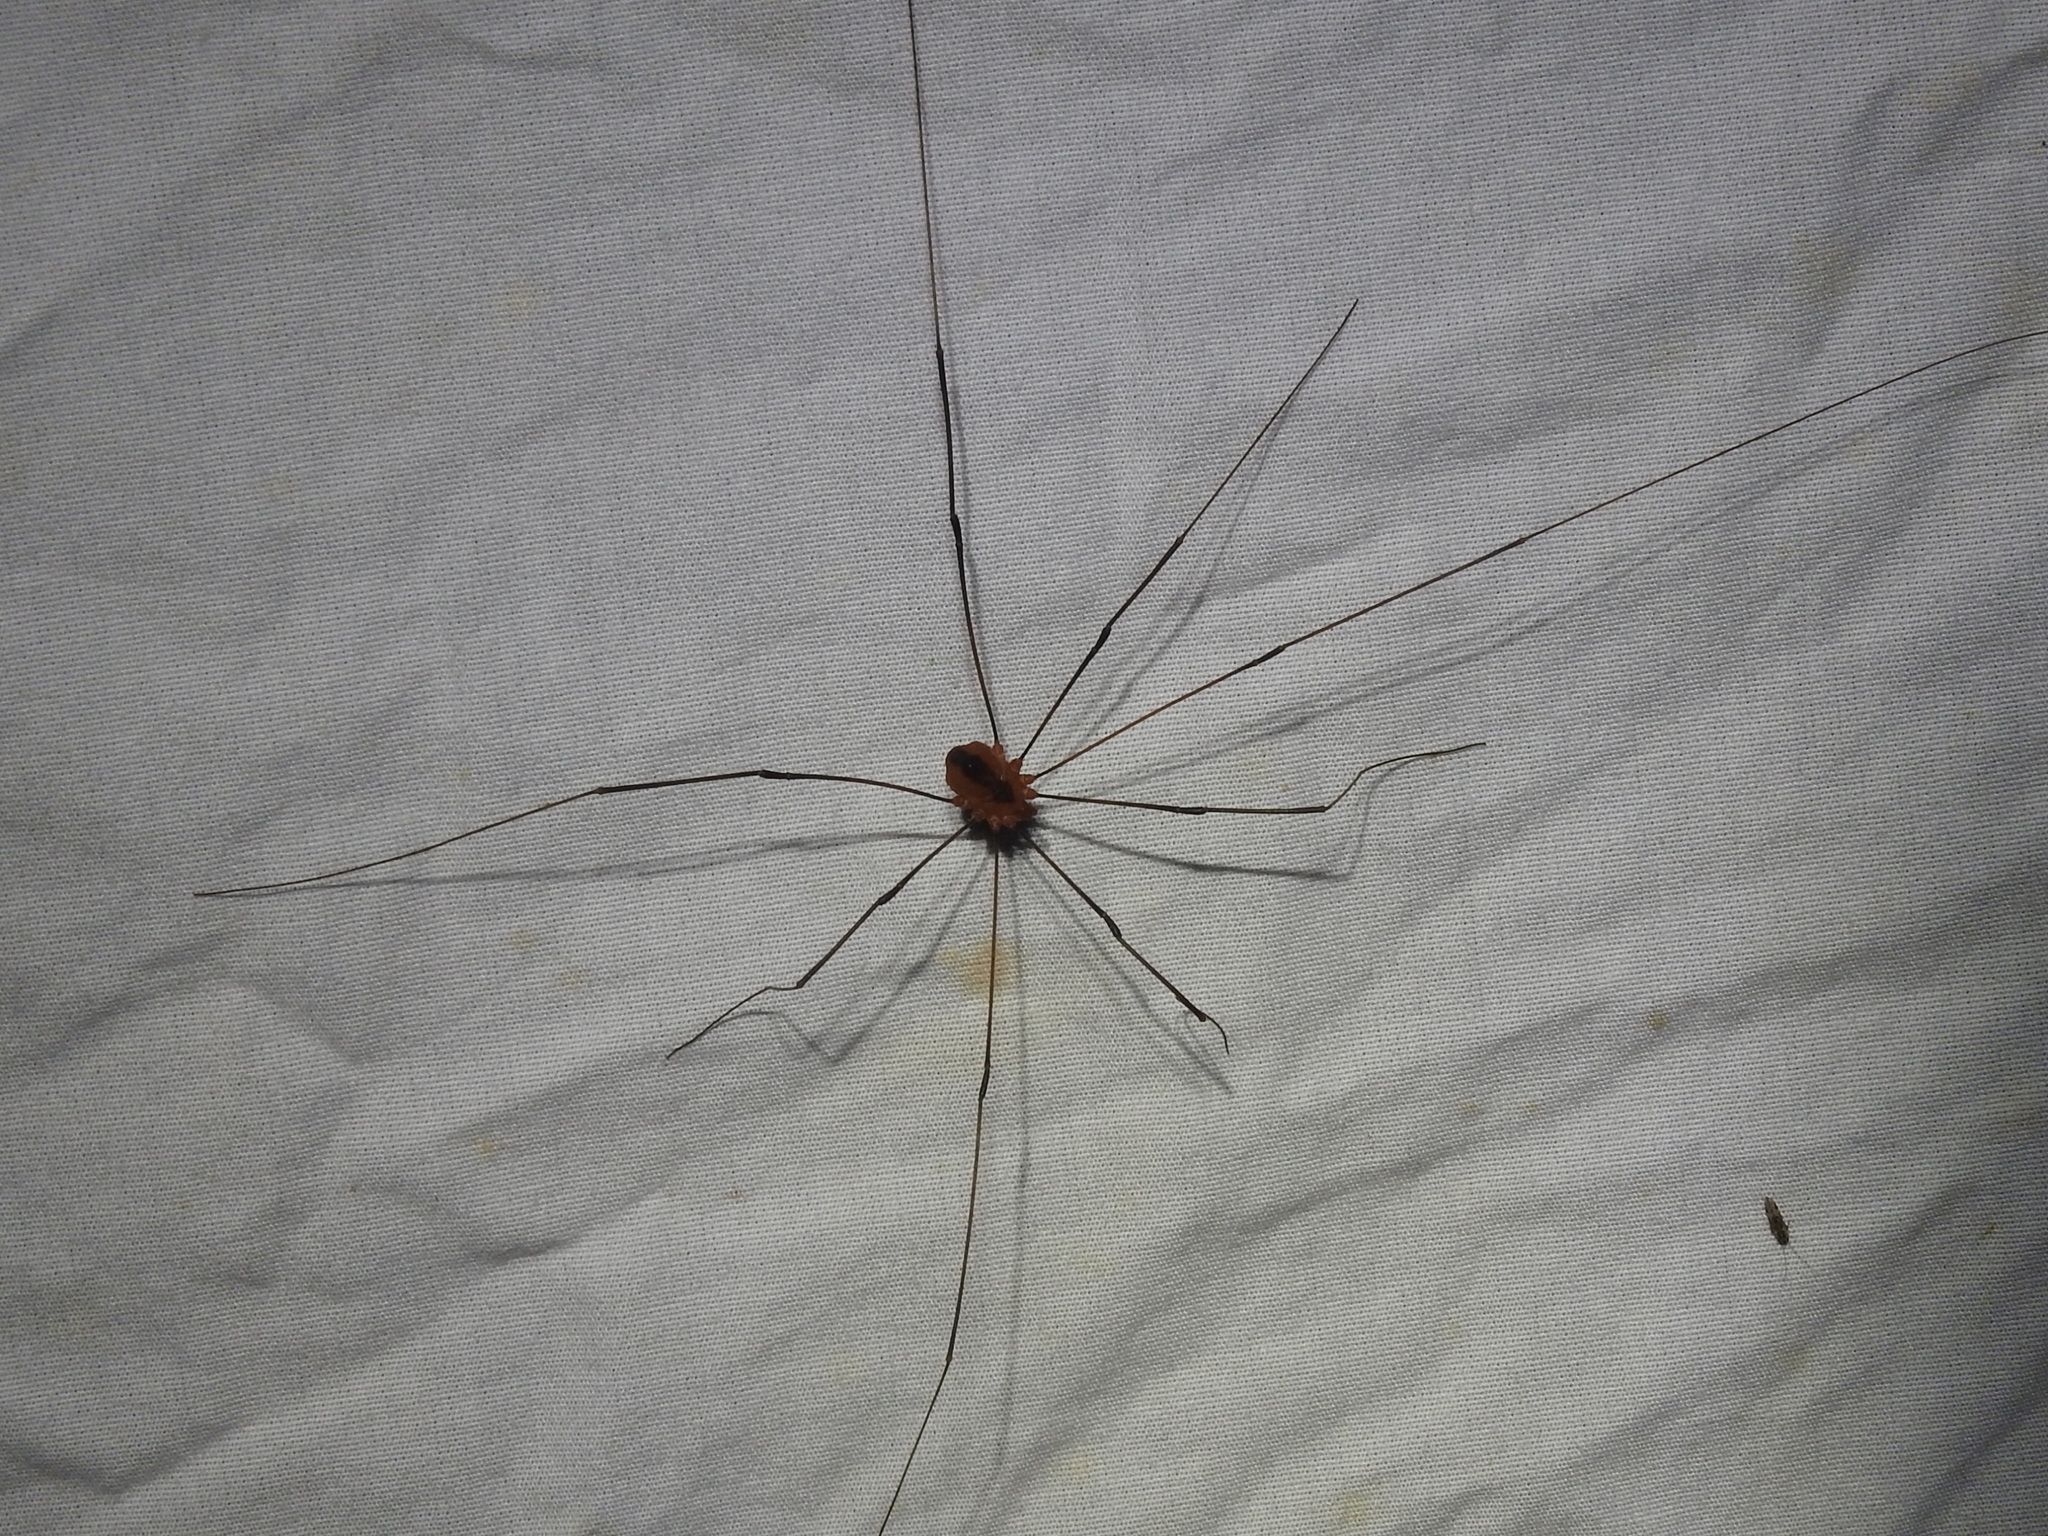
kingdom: Animalia
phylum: Arthropoda
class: Arachnida
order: Opiliones
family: Sclerosomatidae
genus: Leiobunum
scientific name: Leiobunum vittatum
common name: Eastern harvestman
